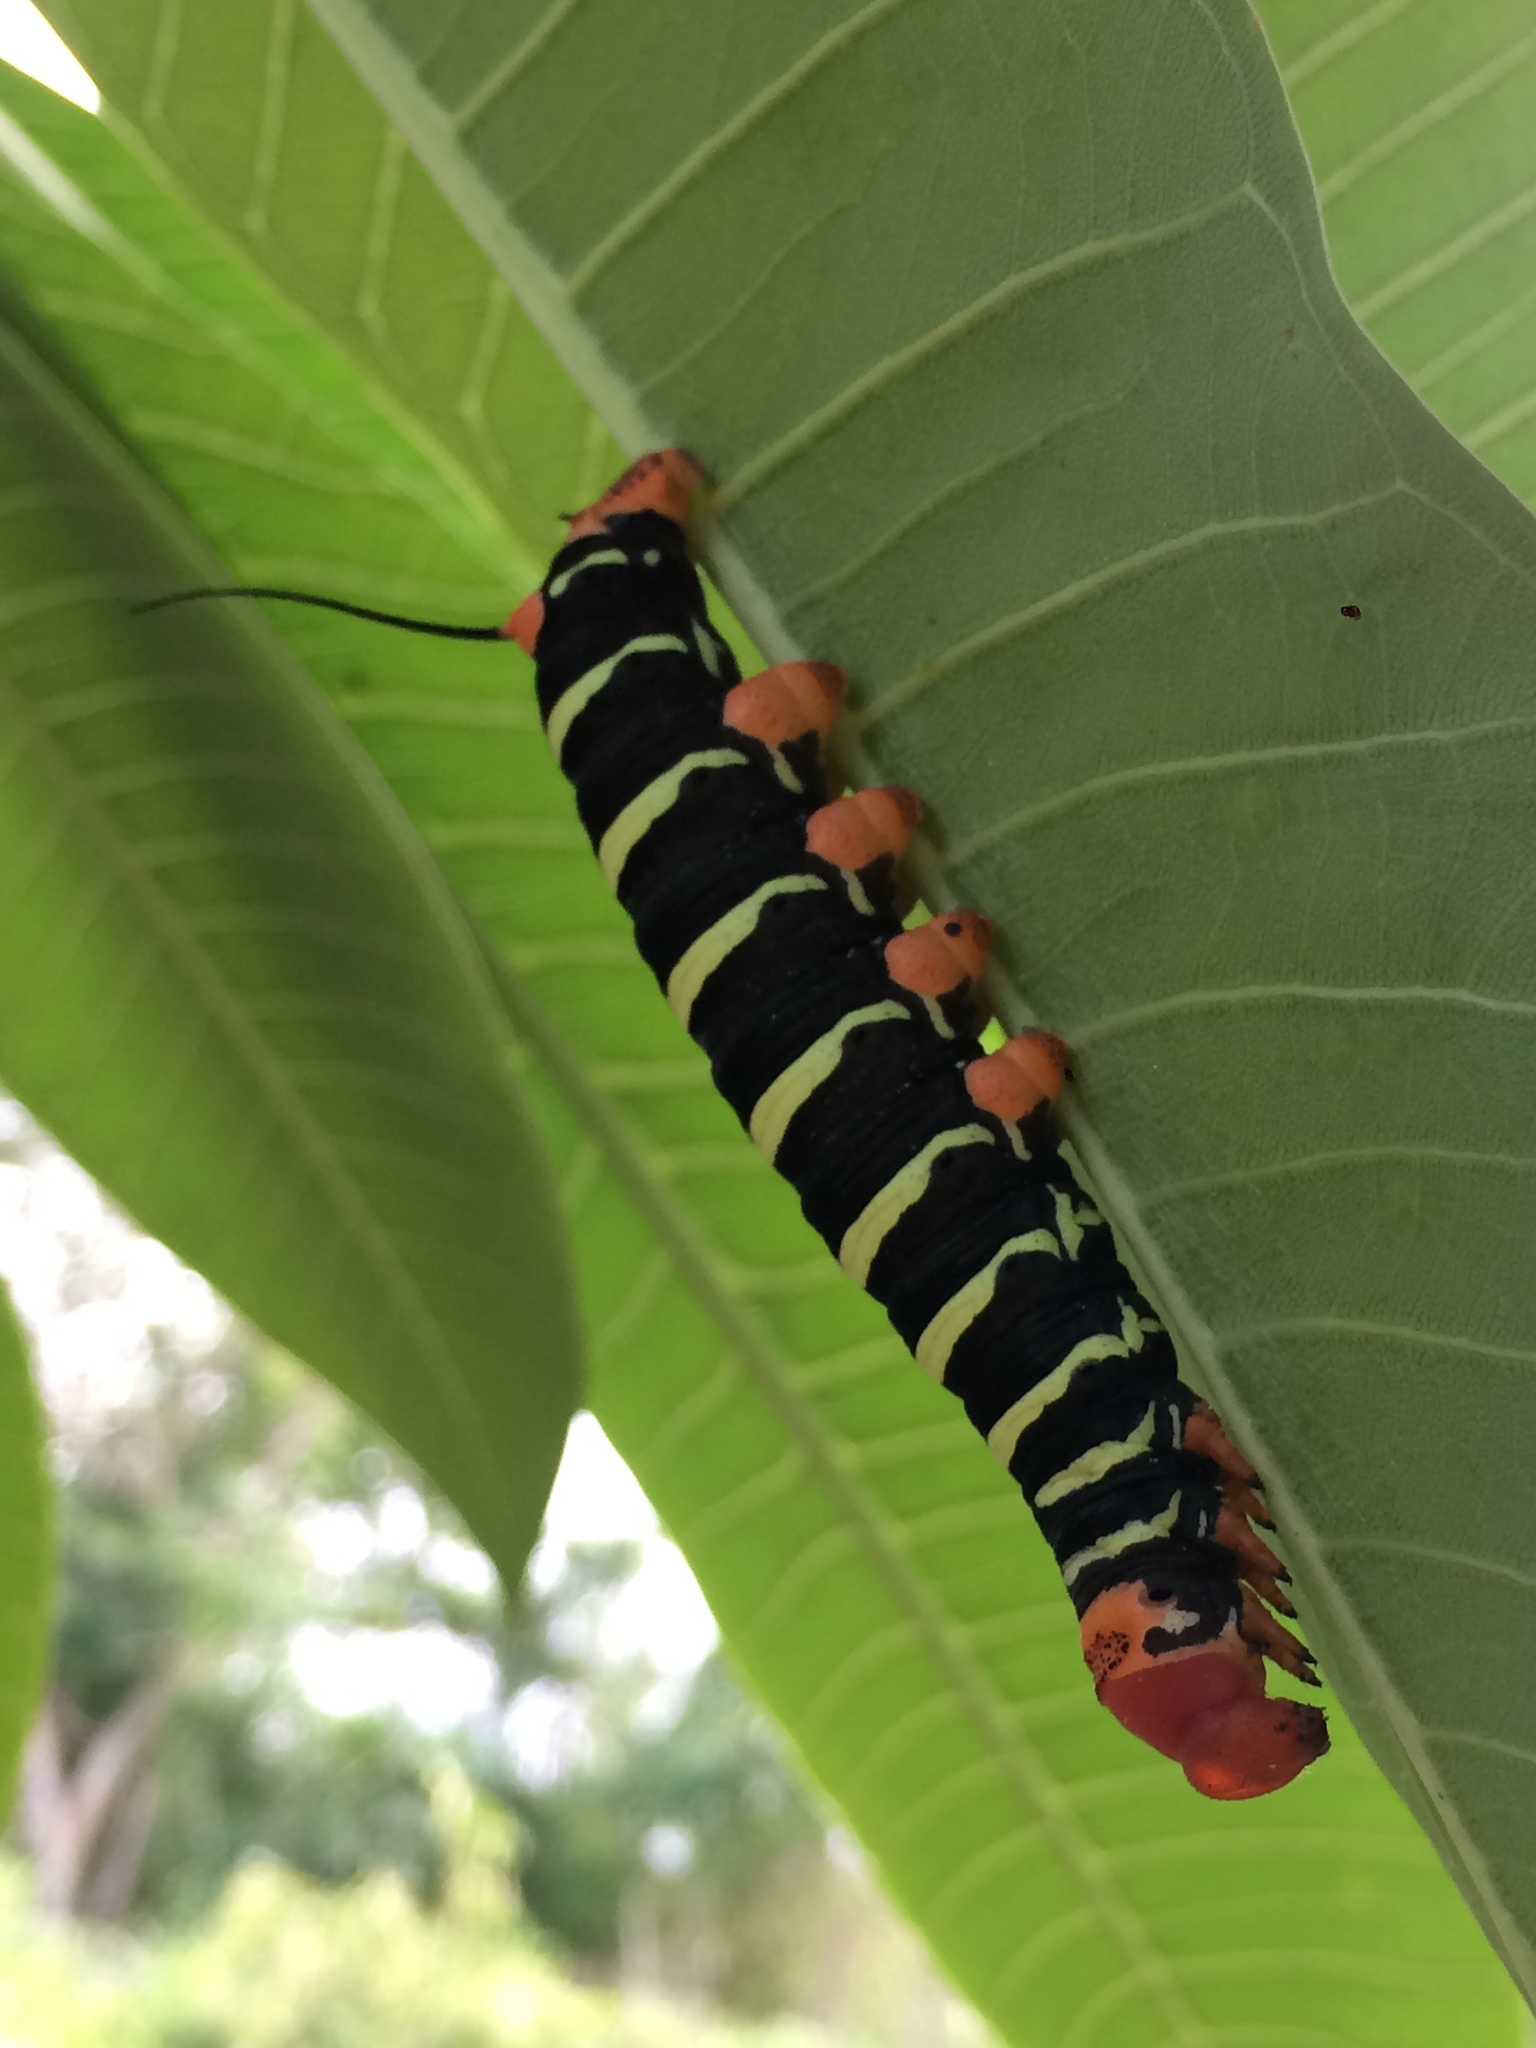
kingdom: Animalia
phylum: Arthropoda
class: Insecta
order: Lepidoptera
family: Sphingidae
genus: Pseudosphinx
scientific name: Pseudosphinx tetrio
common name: Tetrio sphinx
